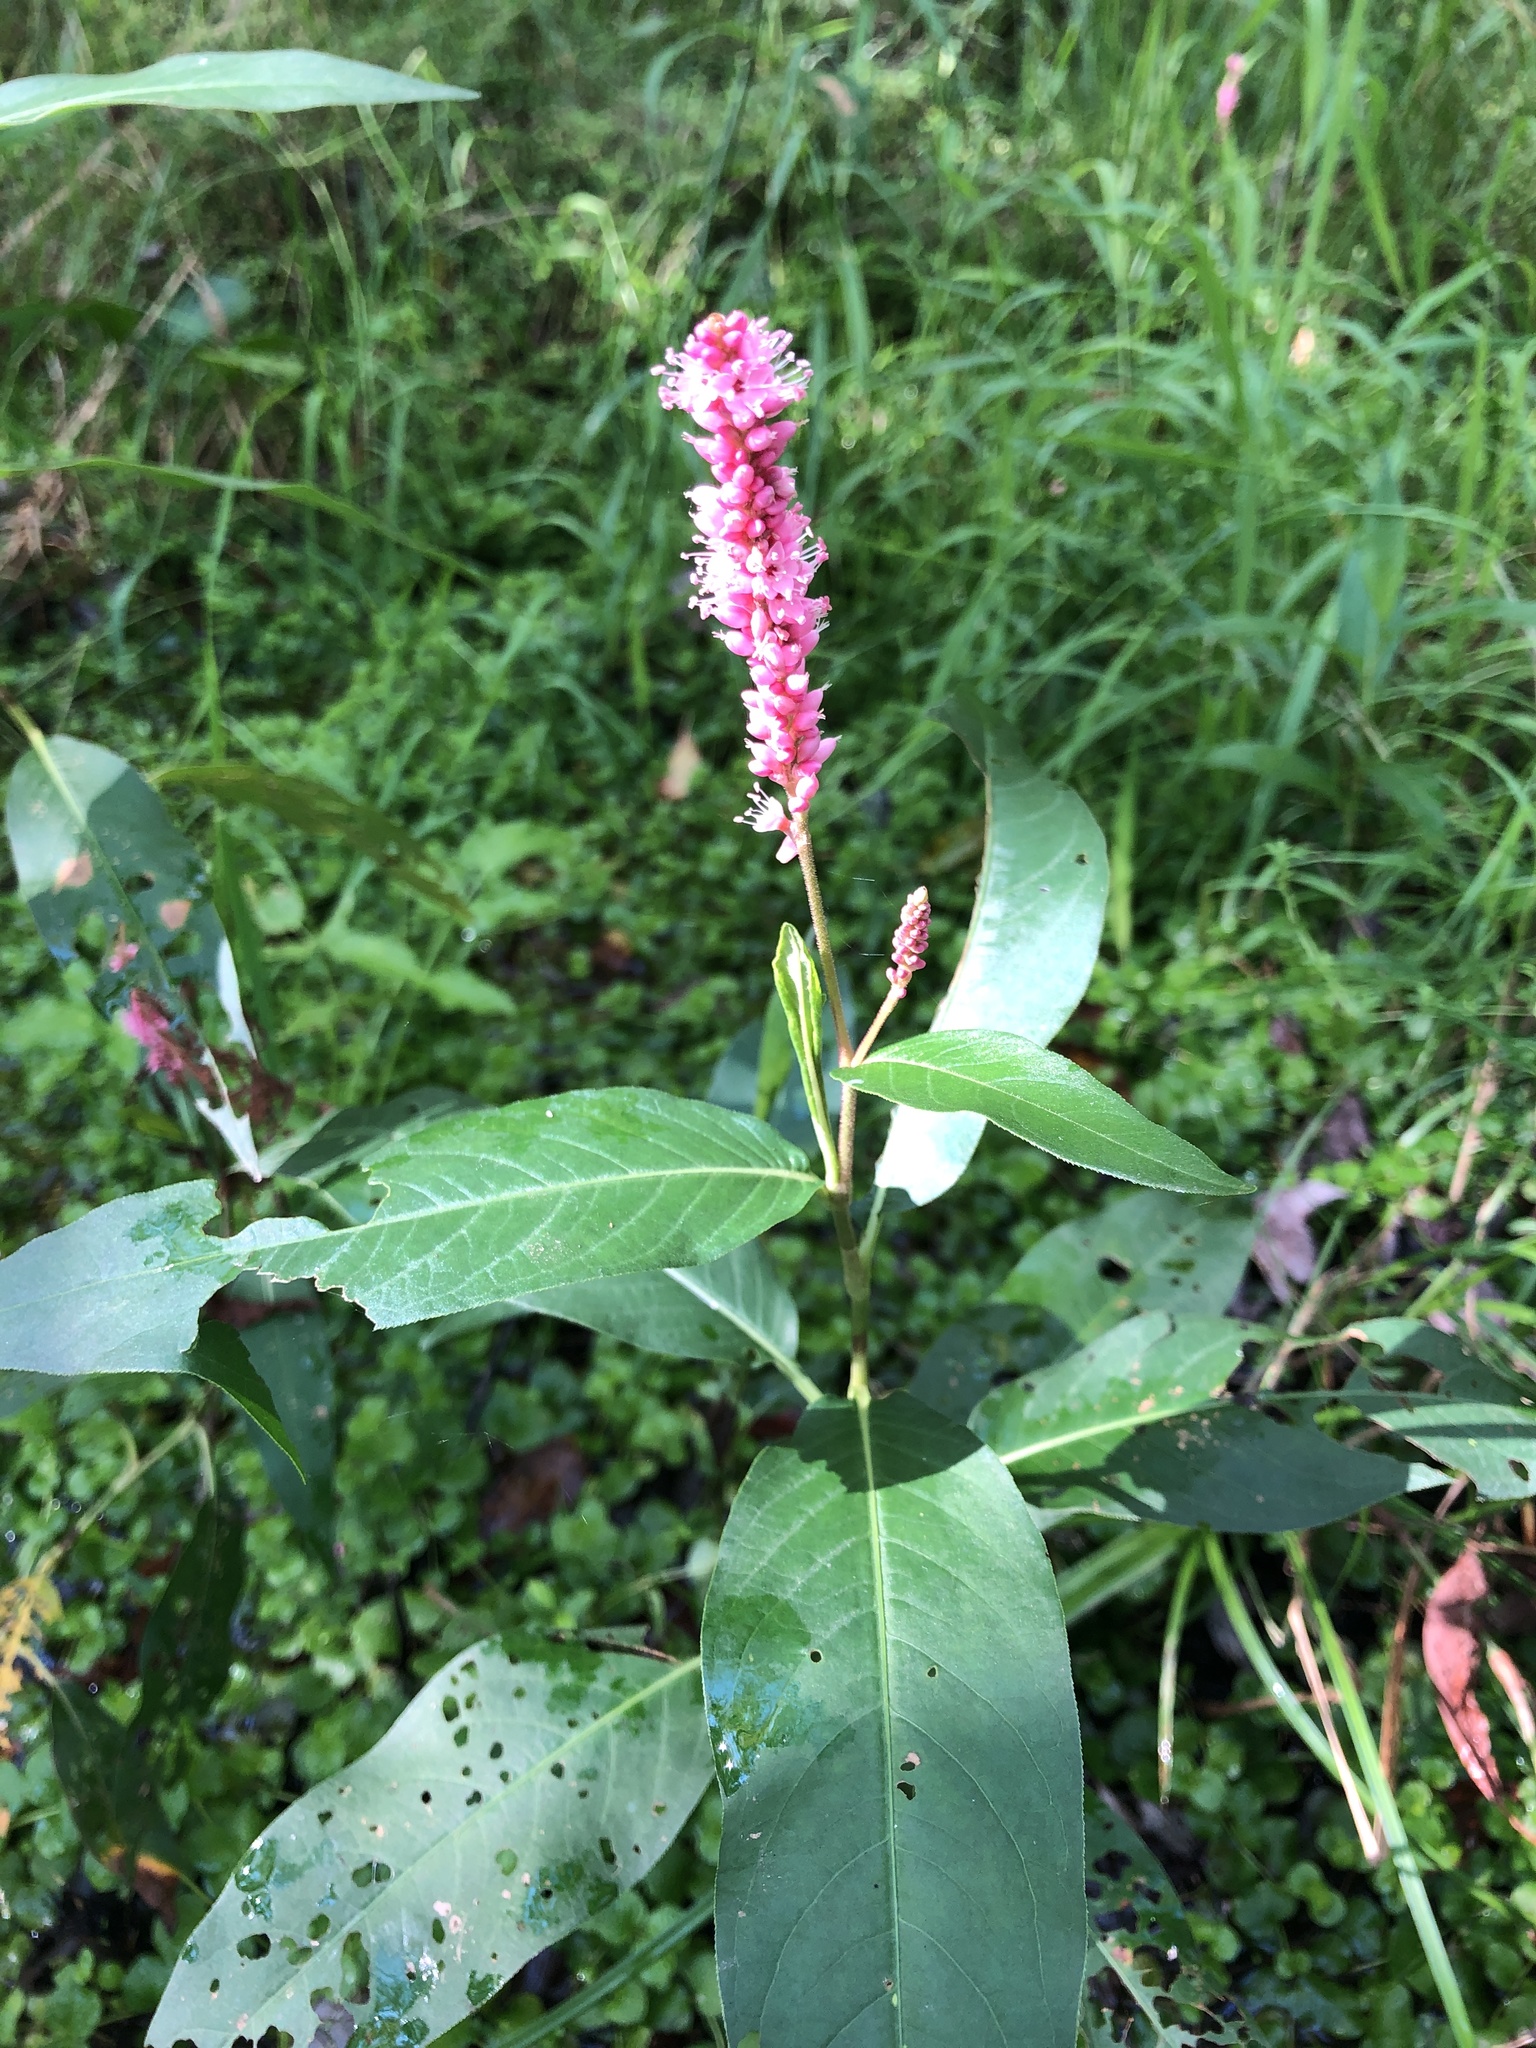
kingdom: Plantae
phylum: Tracheophyta
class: Magnoliopsida
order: Caryophyllales
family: Polygonaceae
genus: Persicaria
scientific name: Persicaria amphibia
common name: Amphibious bistort
